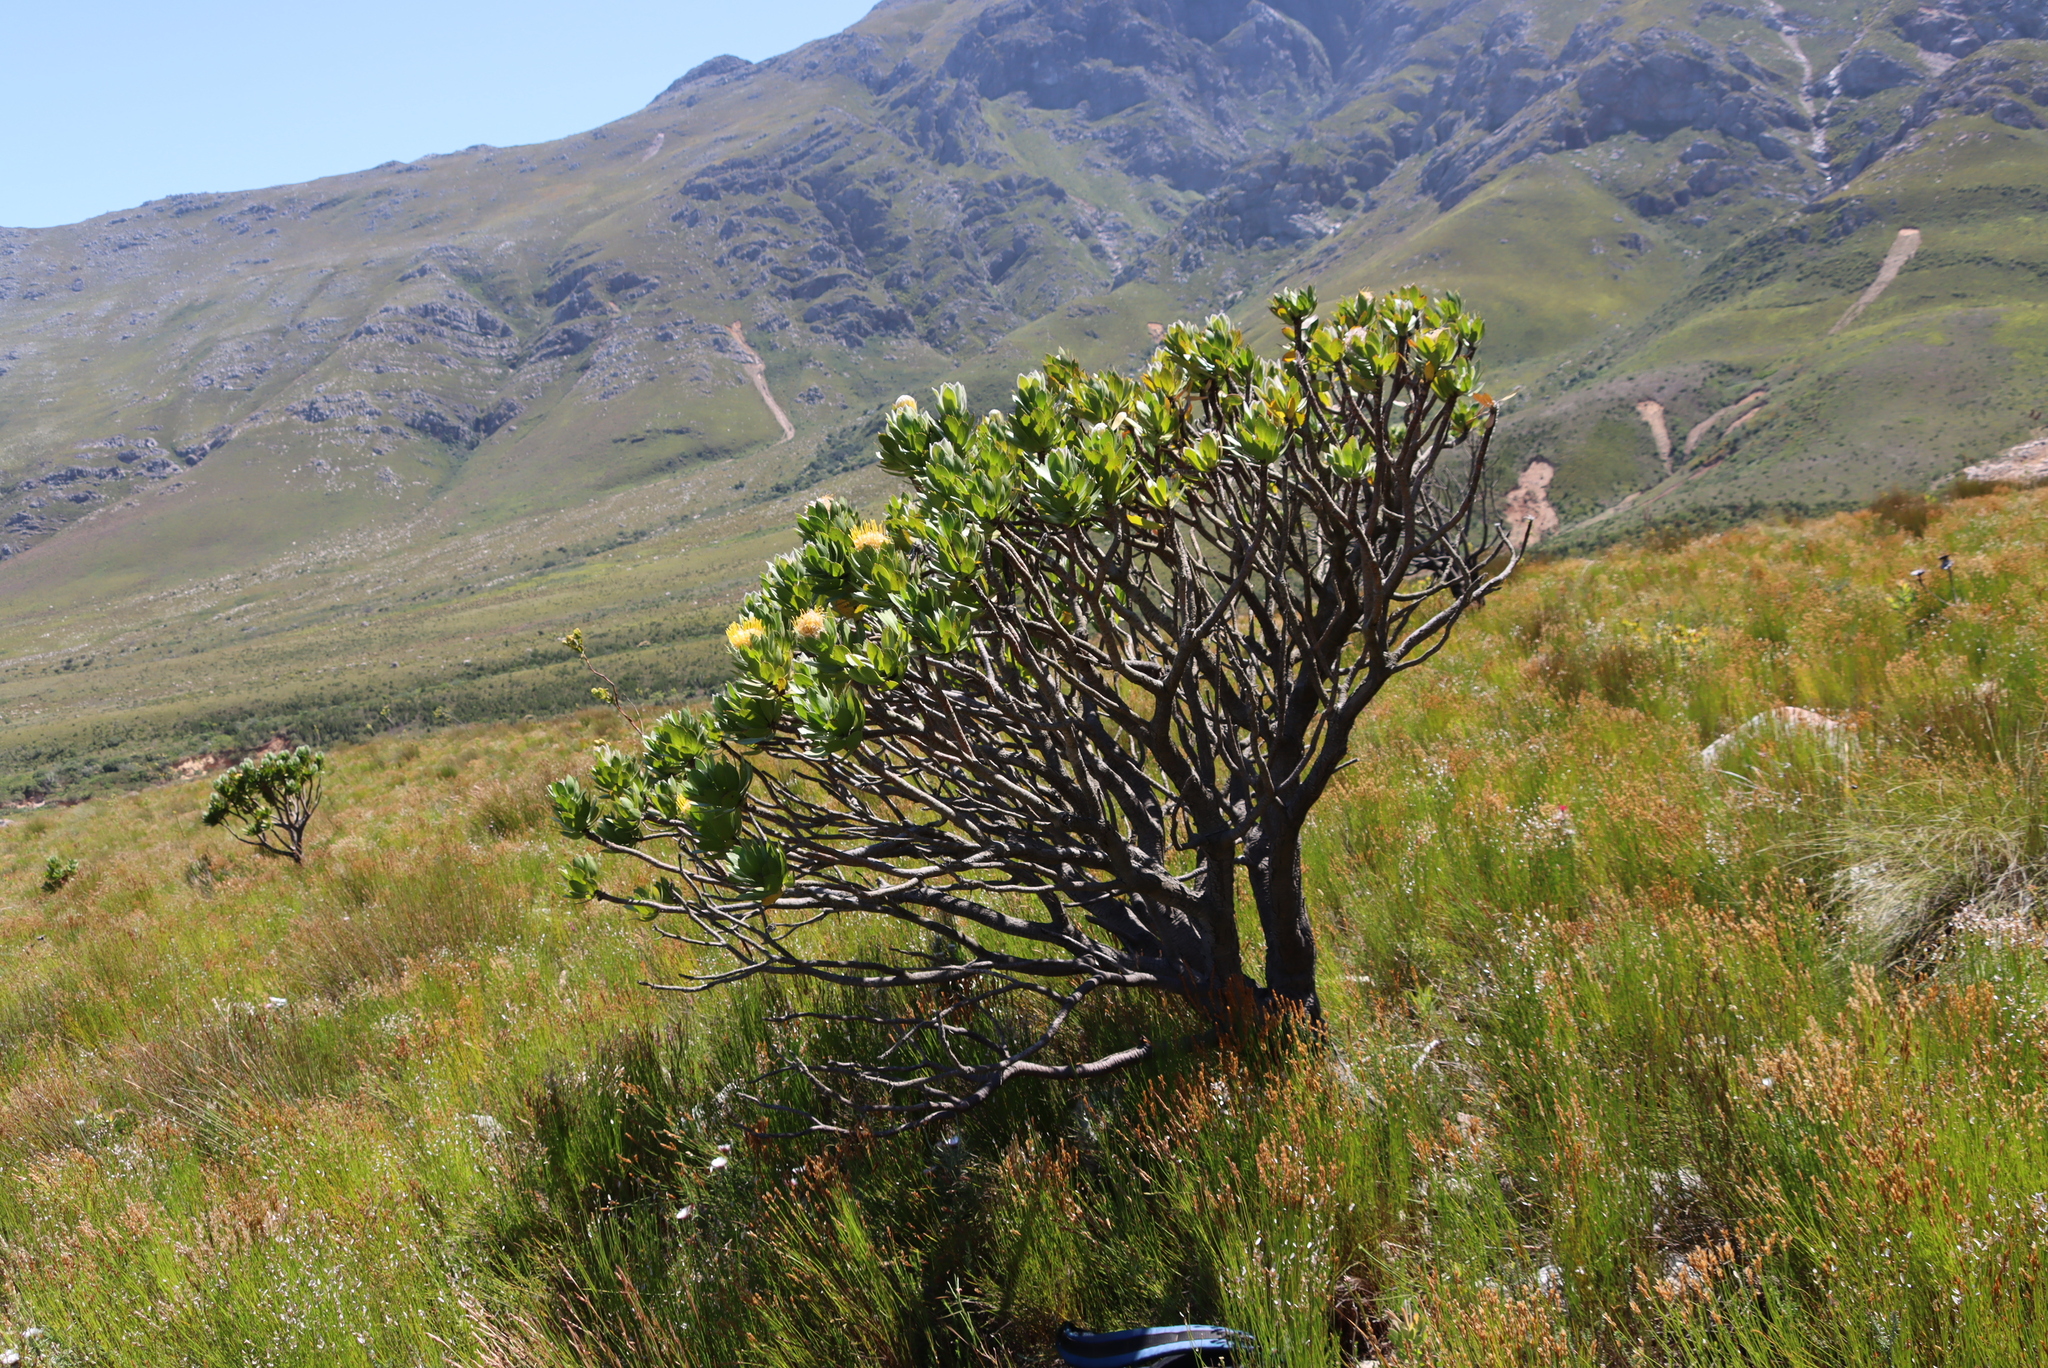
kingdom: Plantae
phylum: Tracheophyta
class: Magnoliopsida
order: Proteales
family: Proteaceae
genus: Leucospermum
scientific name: Leucospermum conocarpodendron
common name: Tree pincushion
